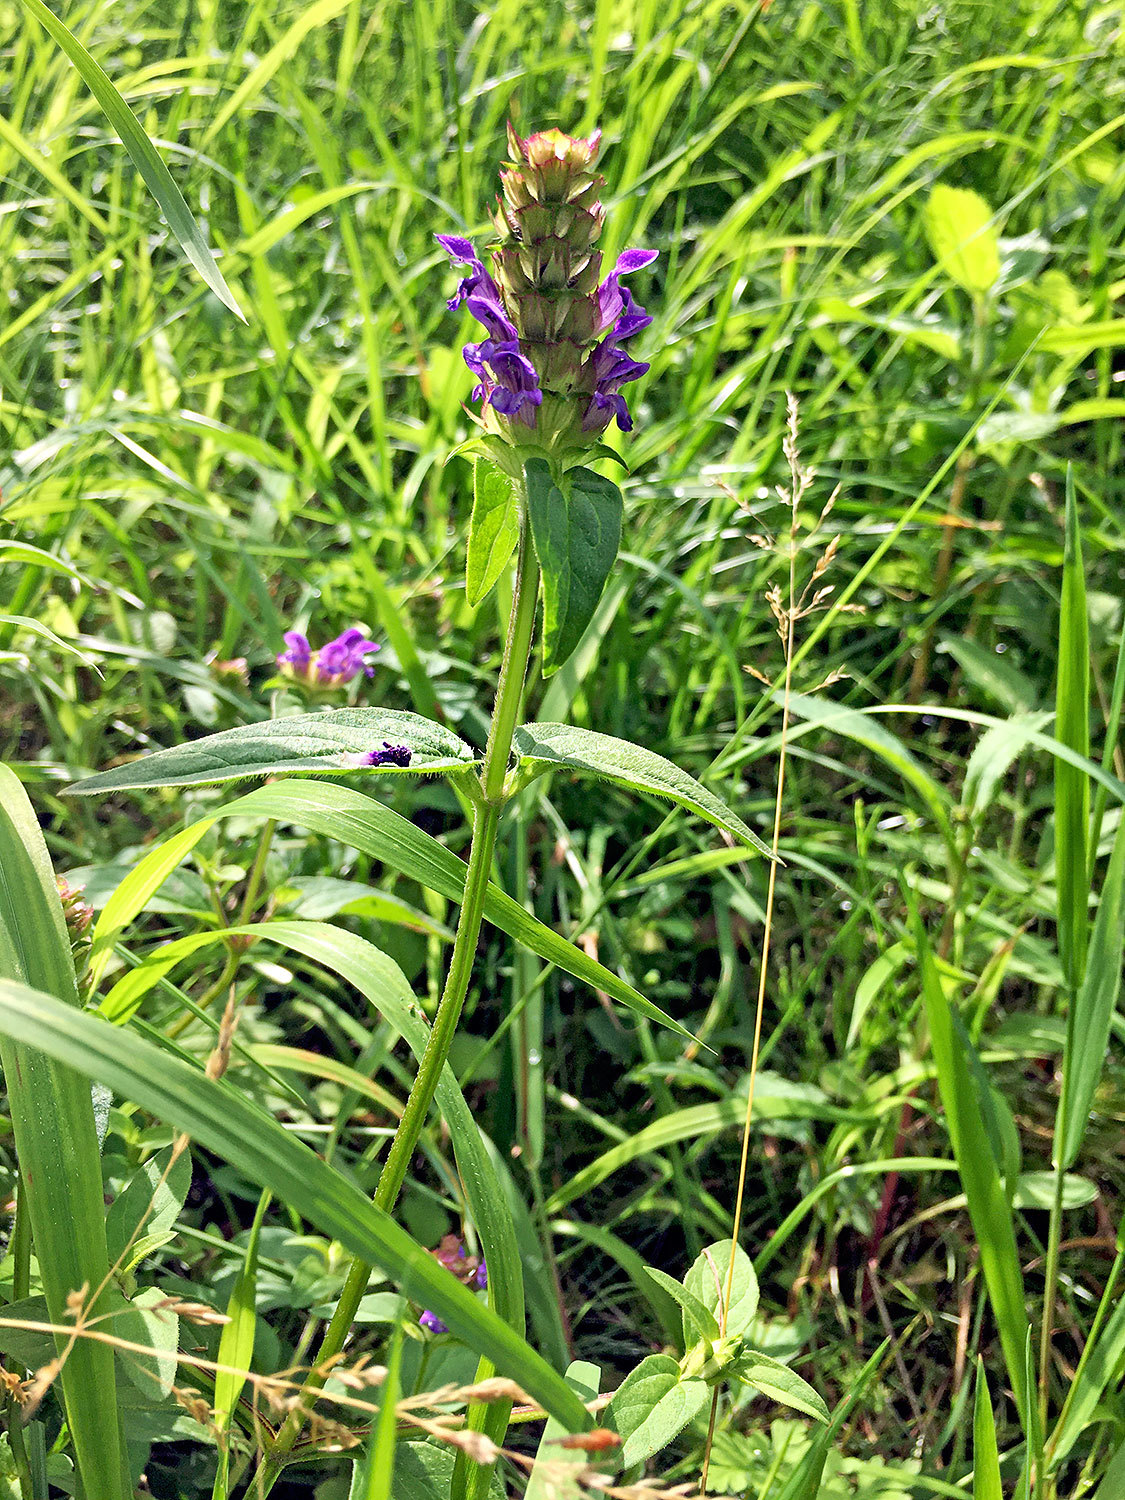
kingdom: Plantae
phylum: Tracheophyta
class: Magnoliopsida
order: Lamiales
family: Lamiaceae
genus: Prunella
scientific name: Prunella vulgaris
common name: Heal-all
